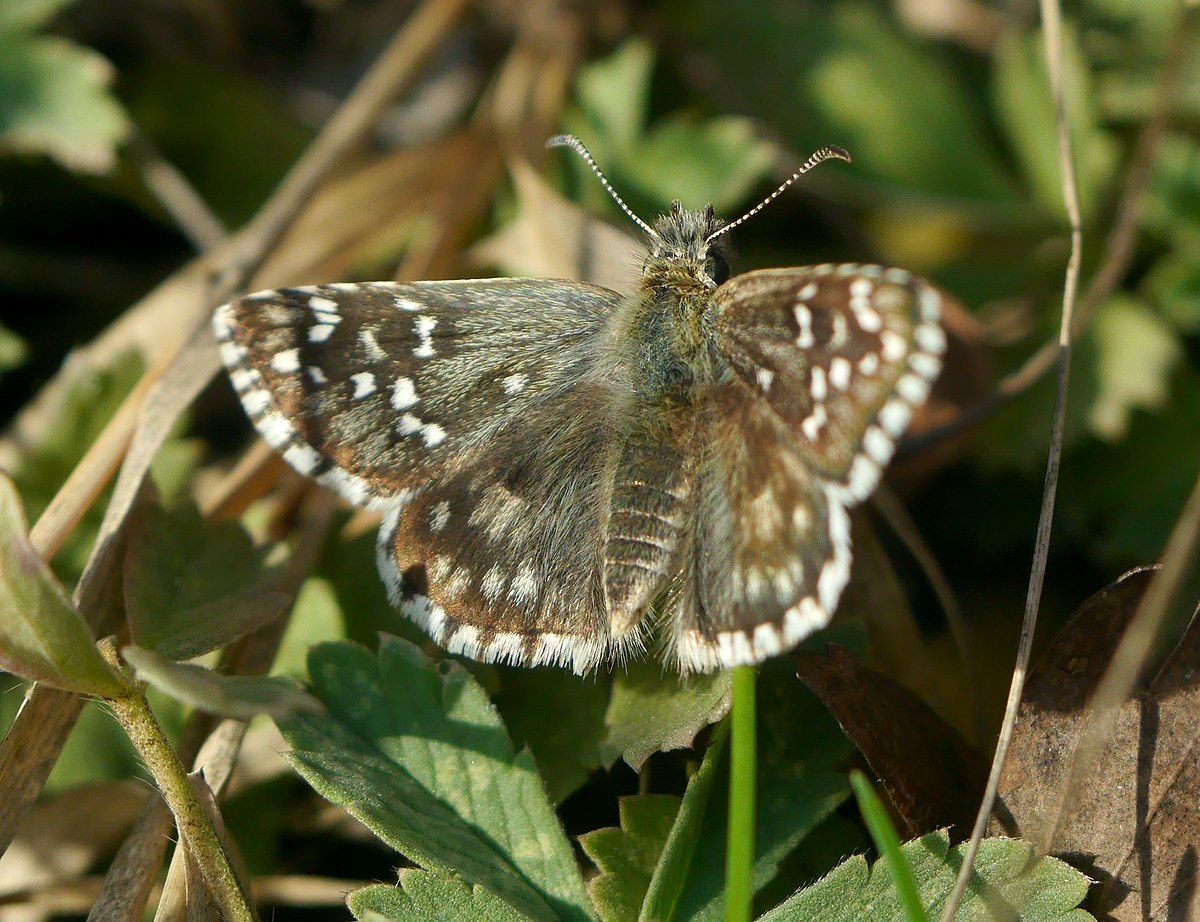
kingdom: Animalia
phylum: Arthropoda
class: Insecta
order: Lepidoptera
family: Hesperiidae
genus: Pyrgus
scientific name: Pyrgus armoricanus
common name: Oberthür's grizzled skipper
